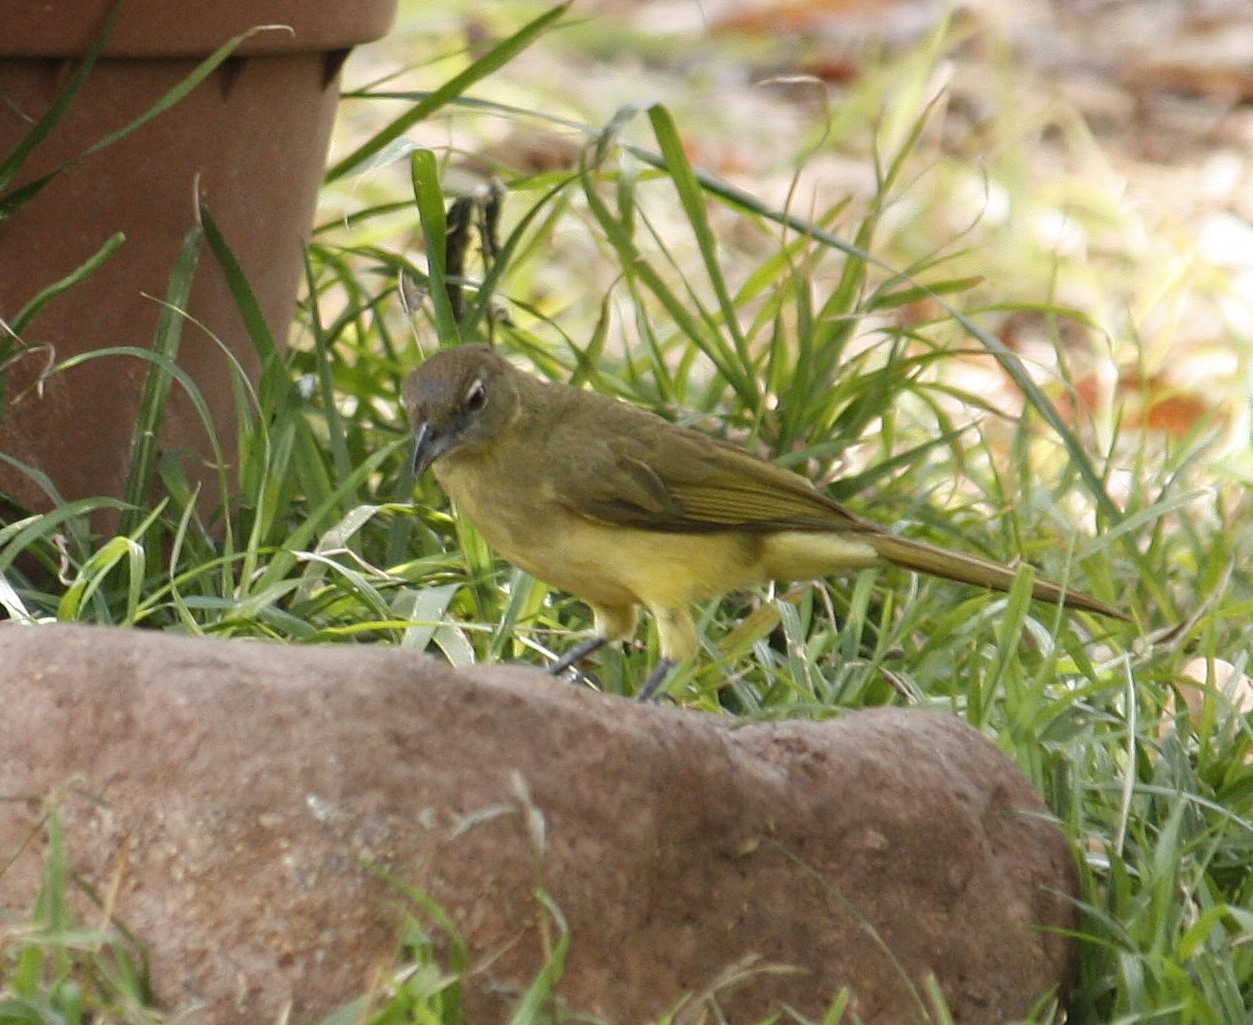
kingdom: Animalia
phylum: Chordata
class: Aves
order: Passeriformes
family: Pycnonotidae
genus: Chlorocichla
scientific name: Chlorocichla flaviventris
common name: Yellow-bellied greenbul
